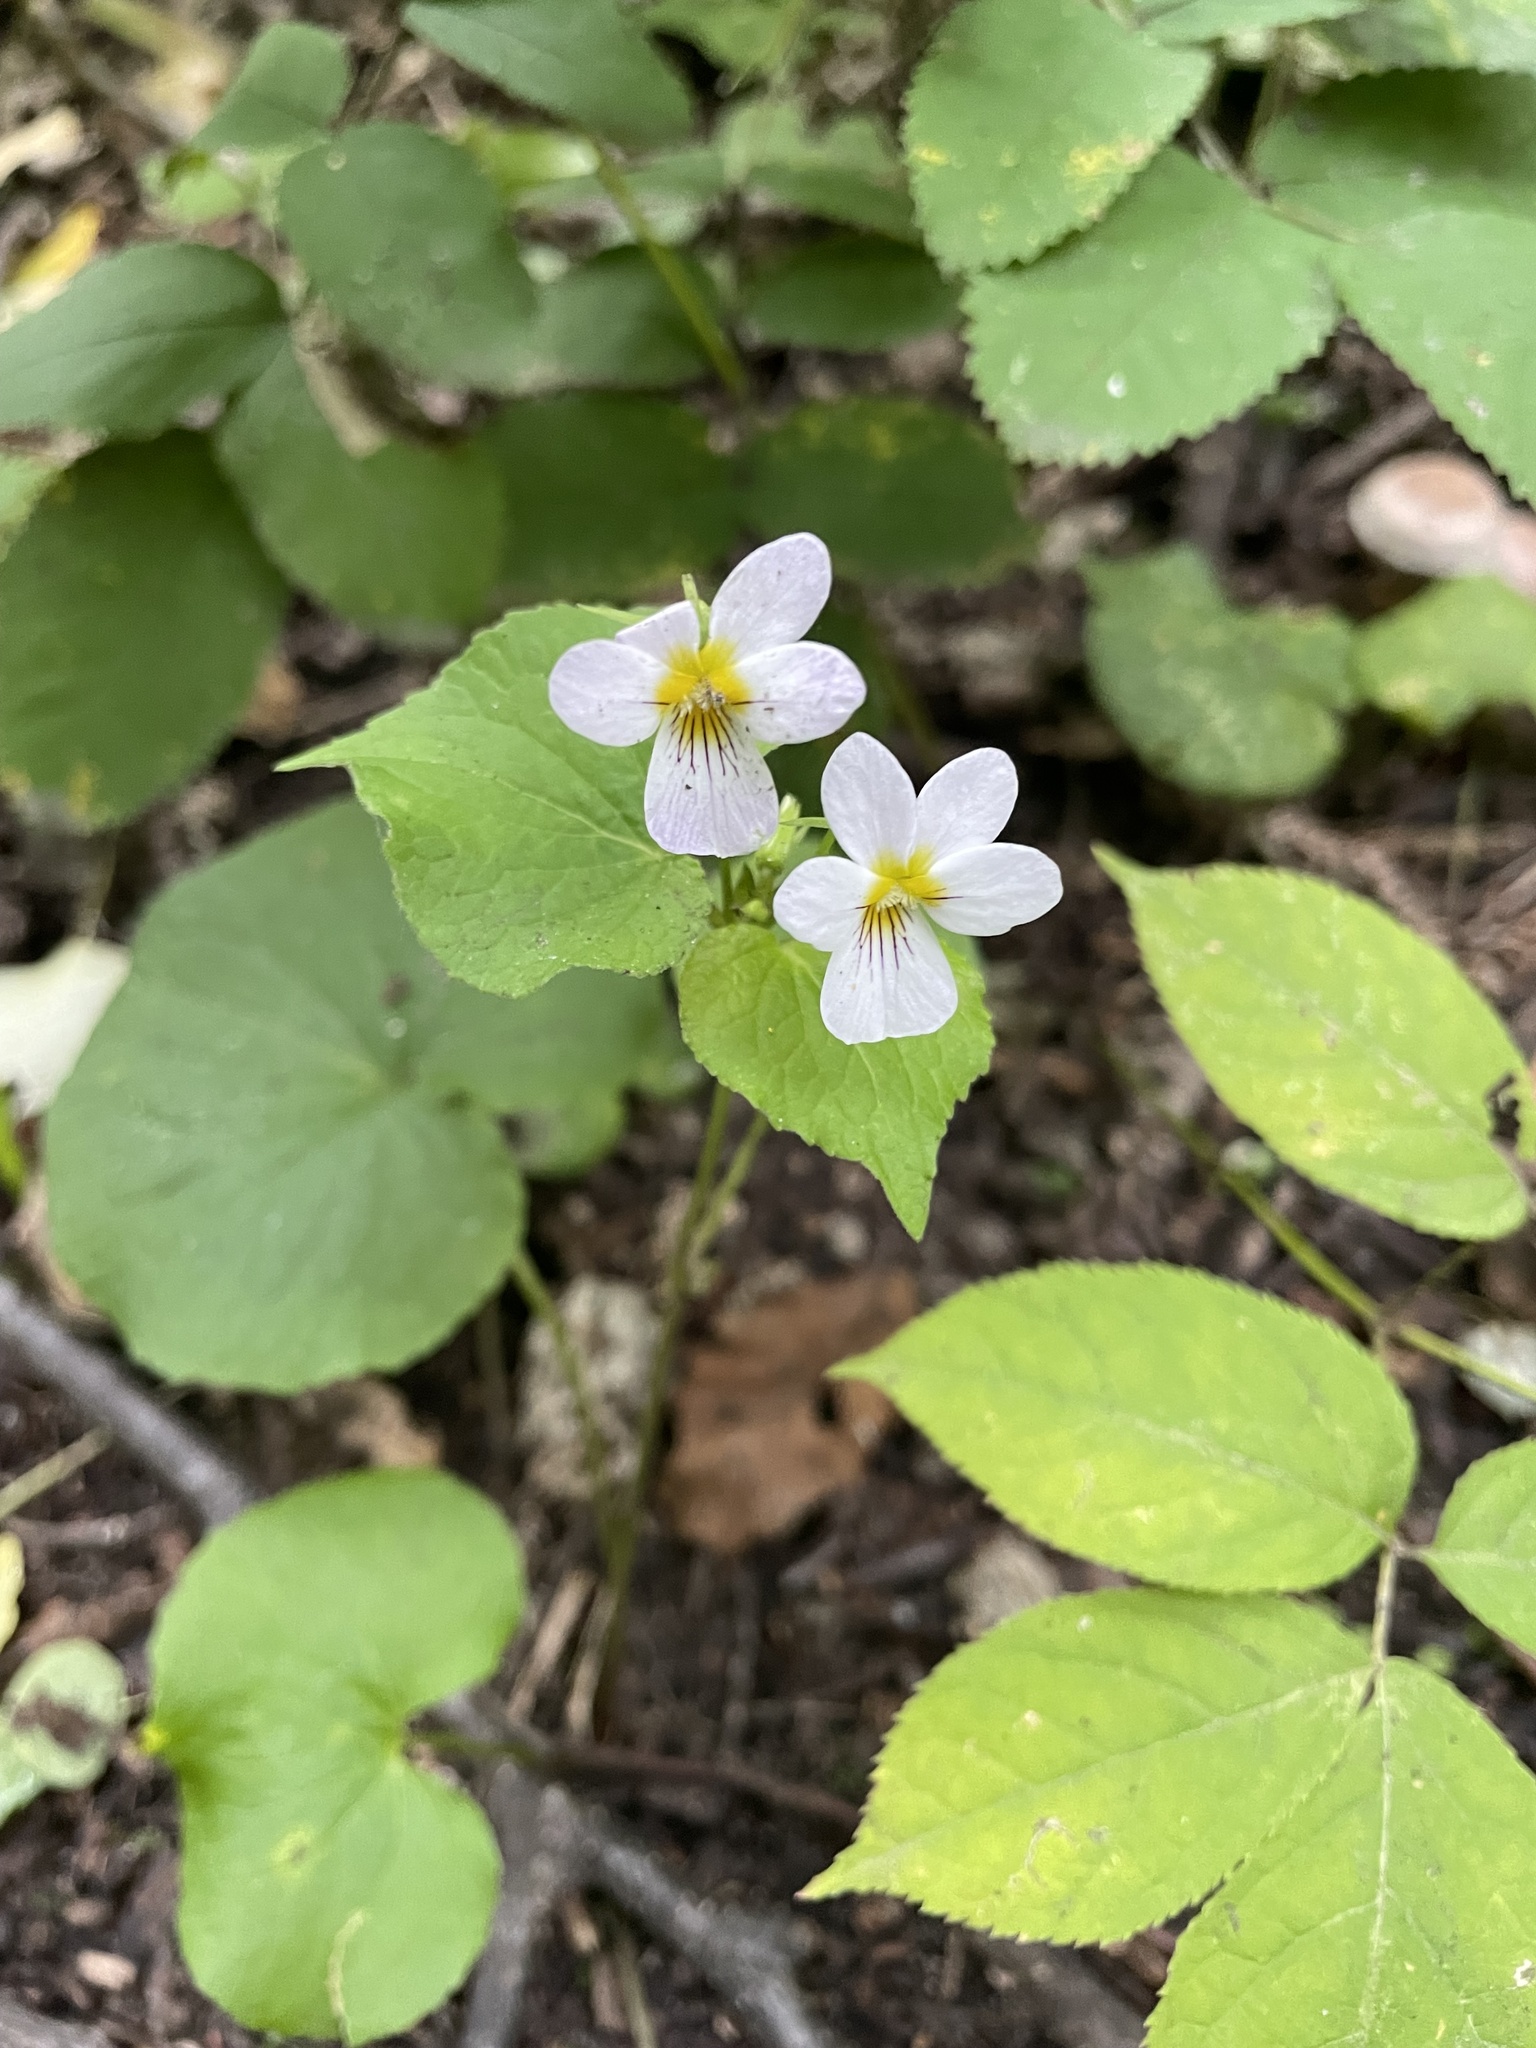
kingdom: Plantae
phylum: Tracheophyta
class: Magnoliopsida
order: Malpighiales
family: Violaceae
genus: Viola
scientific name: Viola canadensis
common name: Canada violet
